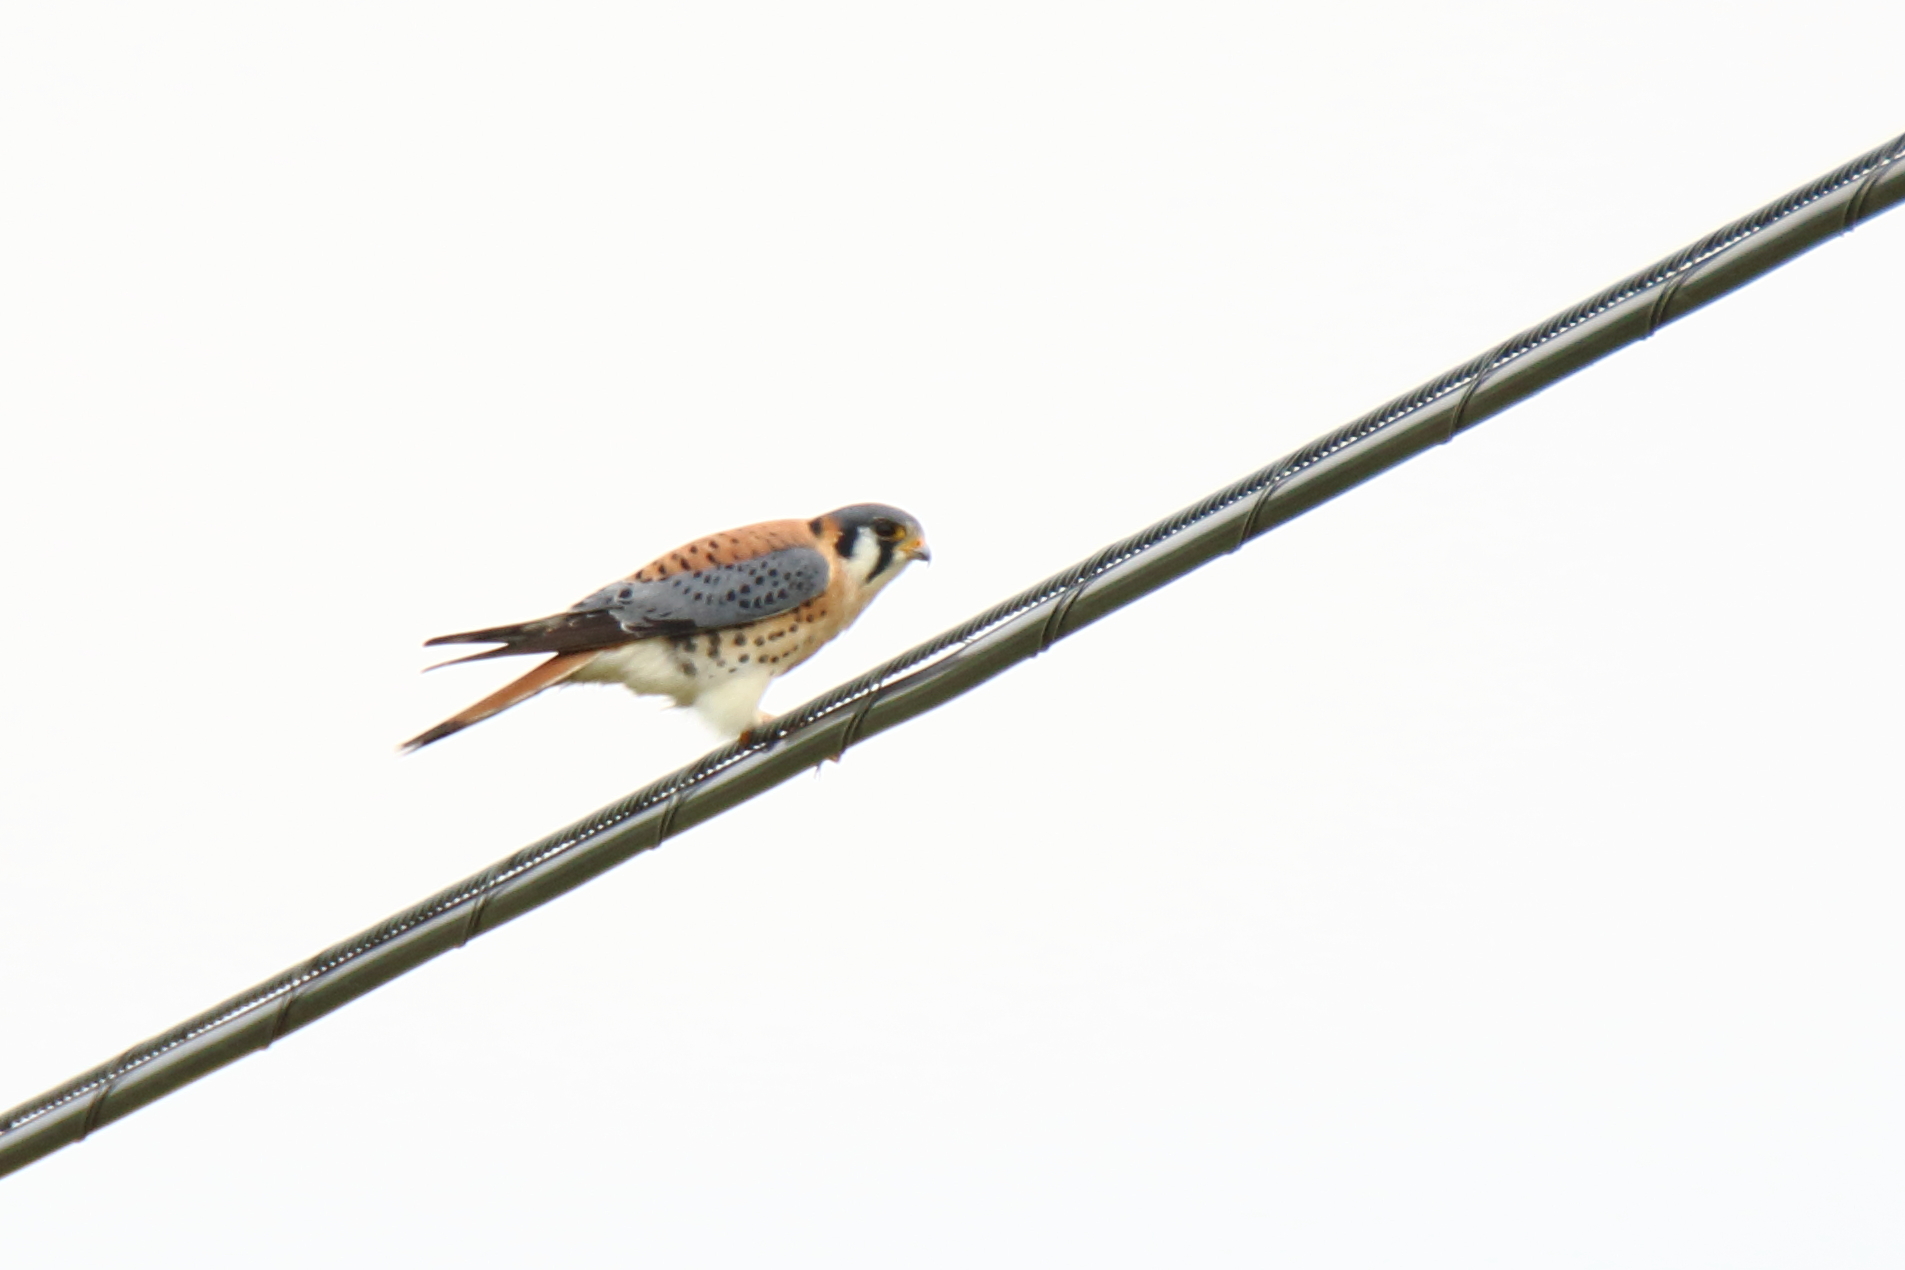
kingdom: Animalia
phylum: Chordata
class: Aves
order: Falconiformes
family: Falconidae
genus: Falco
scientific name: Falco sparverius
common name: American kestrel
